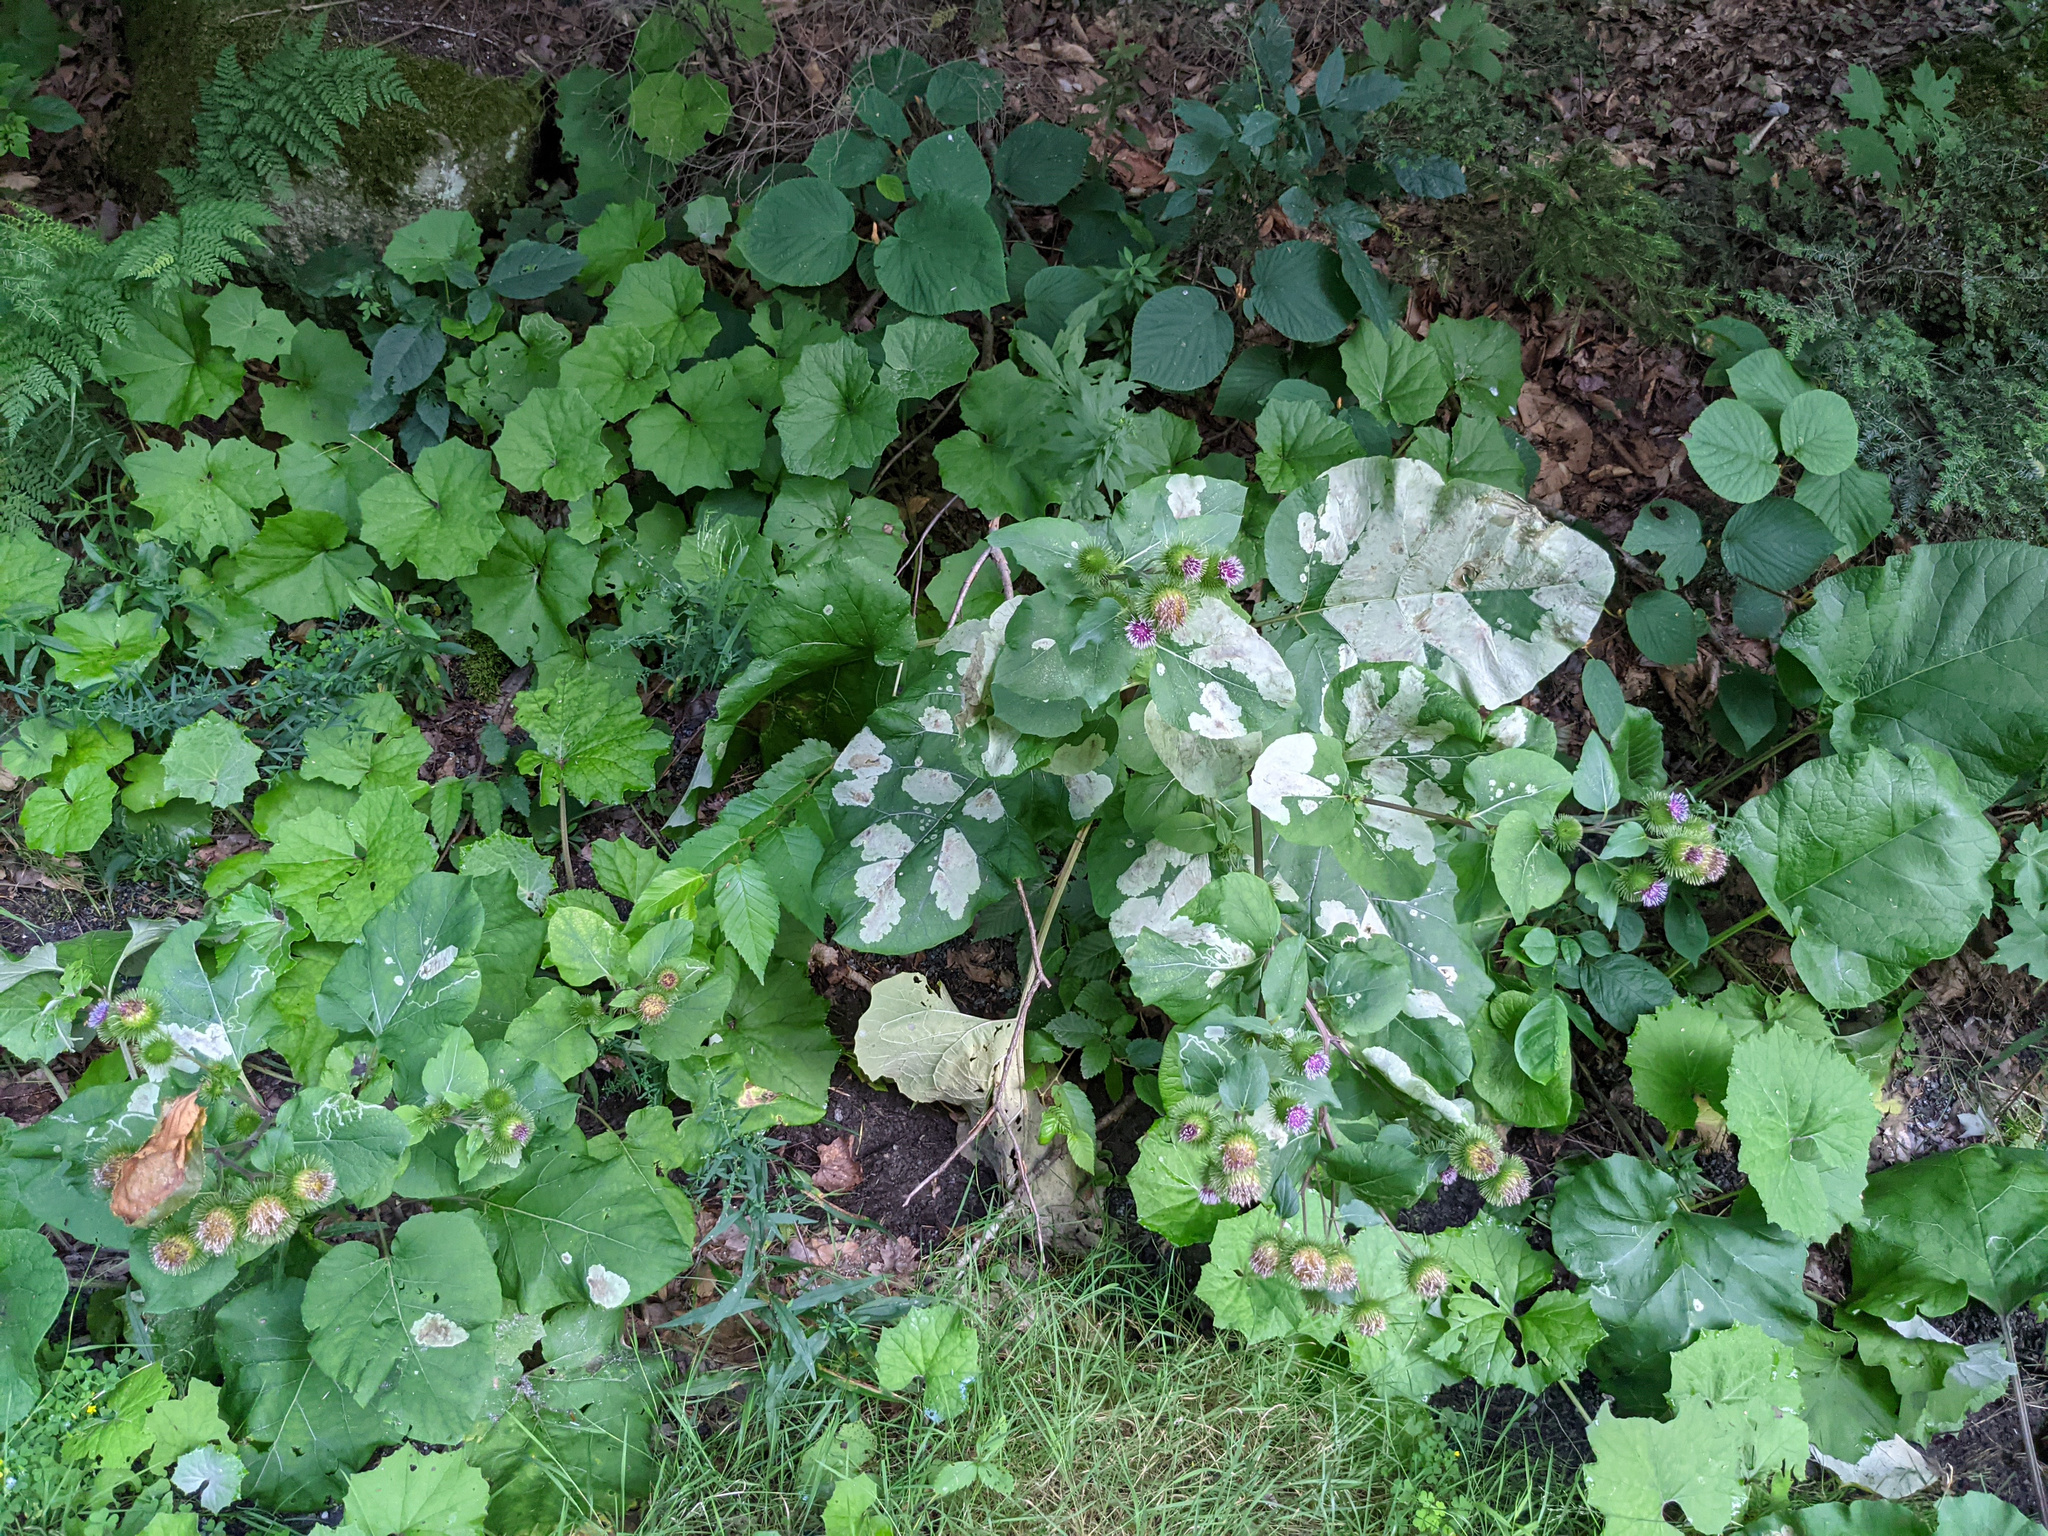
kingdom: Animalia
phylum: Arthropoda
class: Insecta
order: Diptera
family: Agromyzidae
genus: Calycomyza
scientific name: Calycomyza flavinotum
